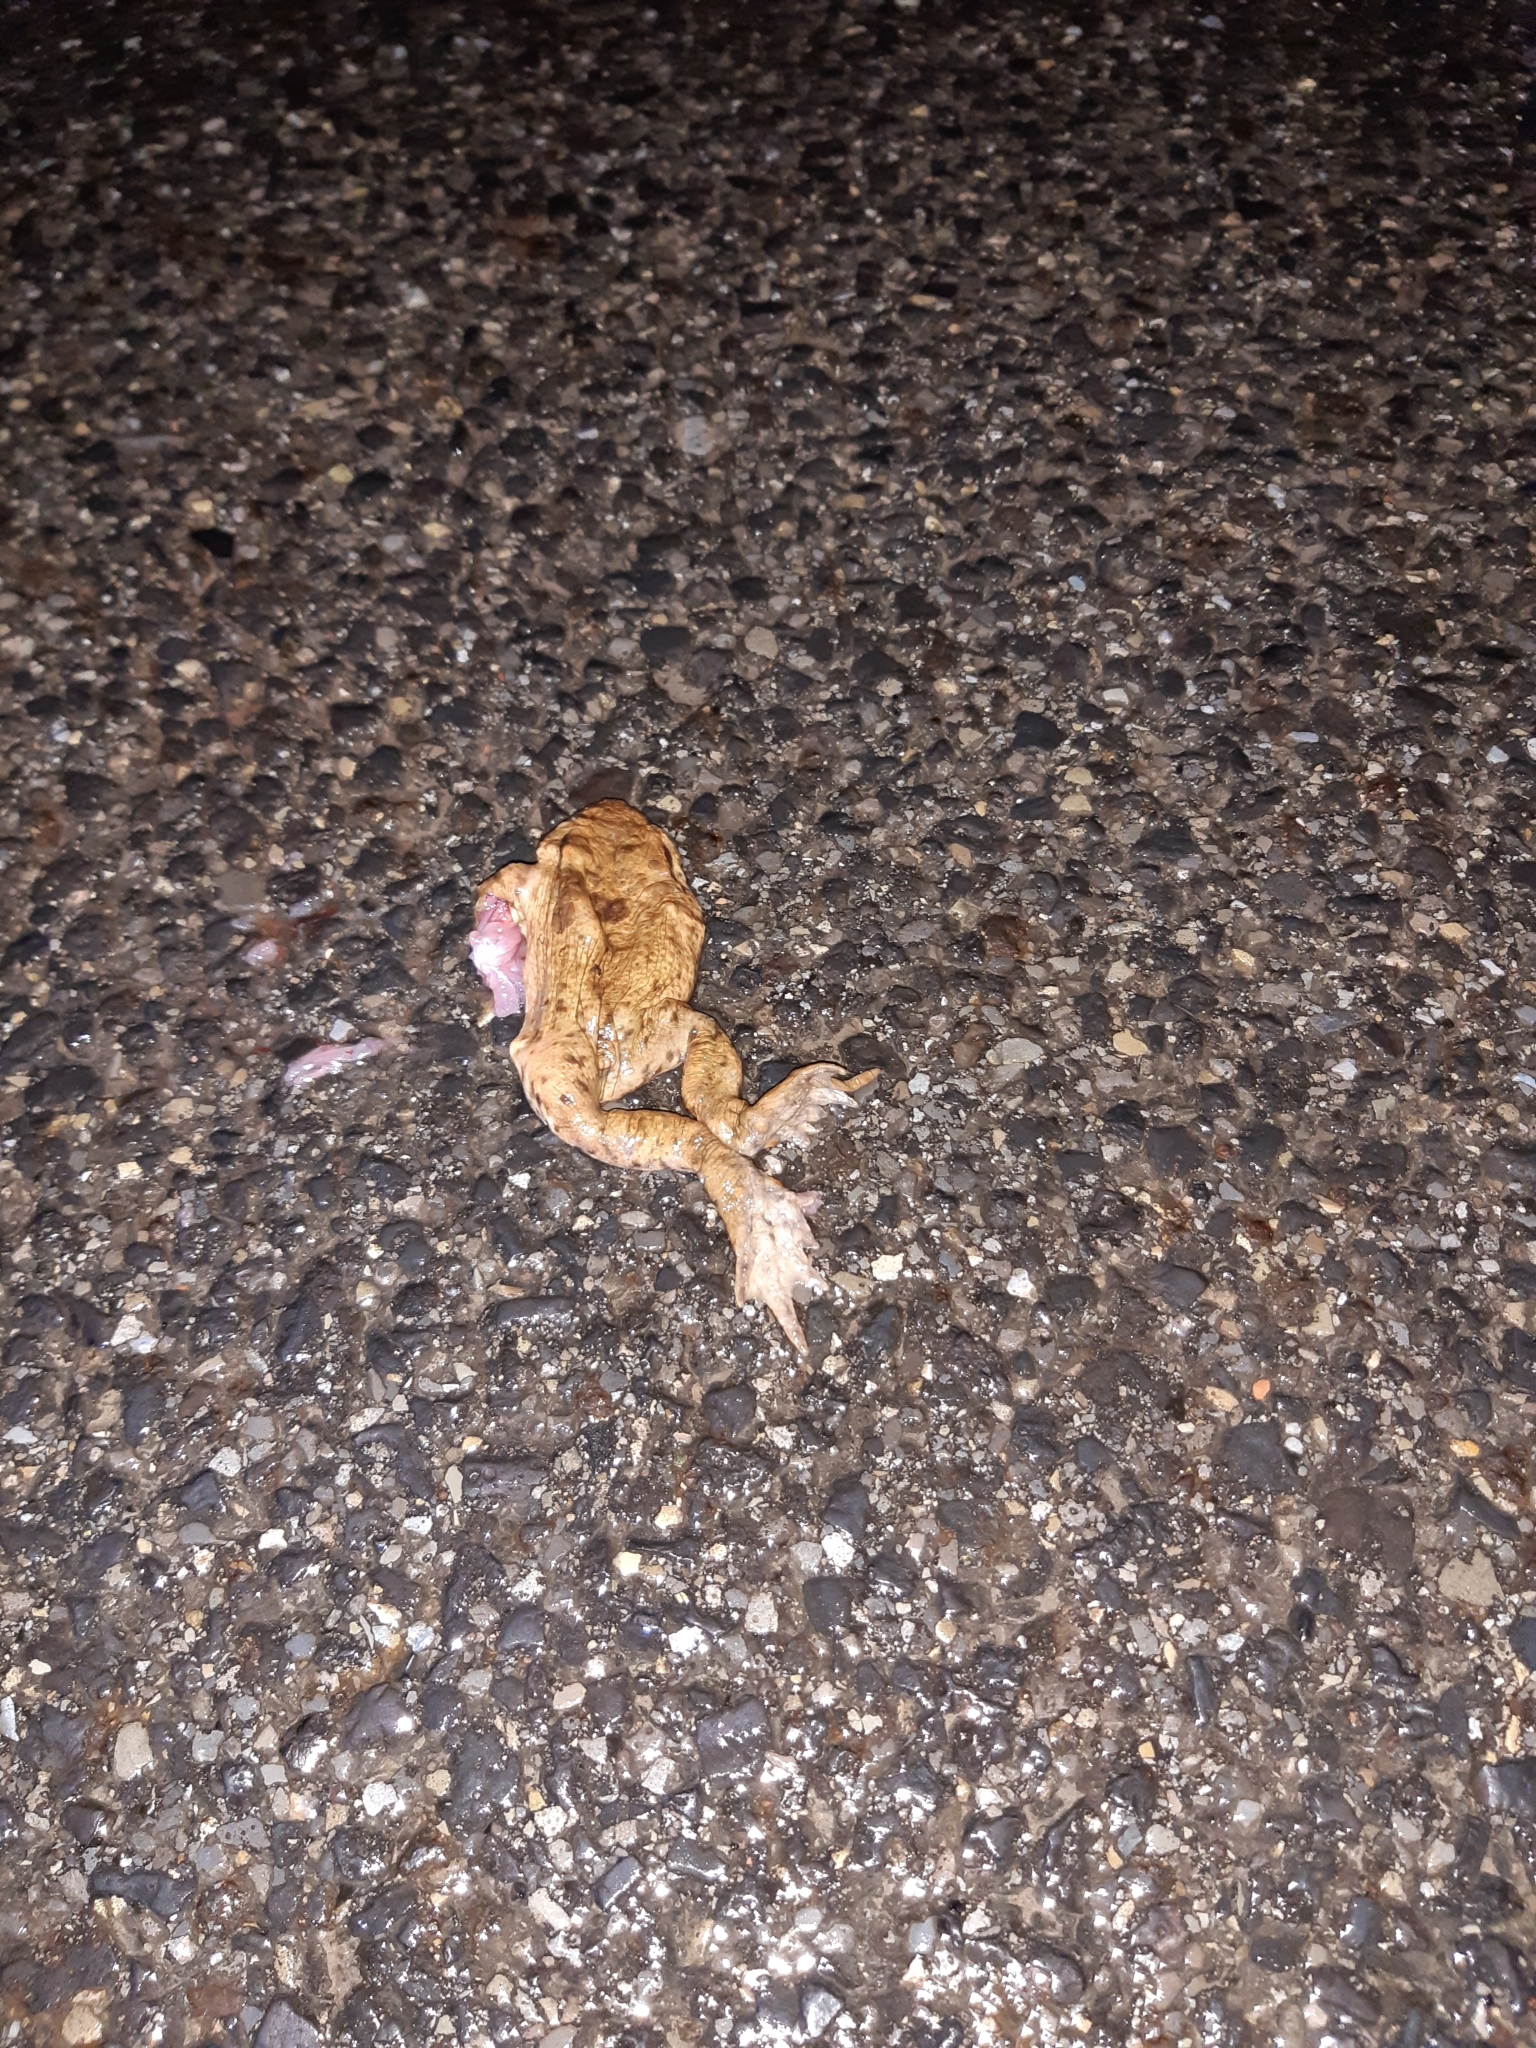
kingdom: Animalia
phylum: Chordata
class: Amphibia
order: Anura
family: Bufonidae
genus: Bufo
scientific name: Bufo bufo
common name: Common toad
